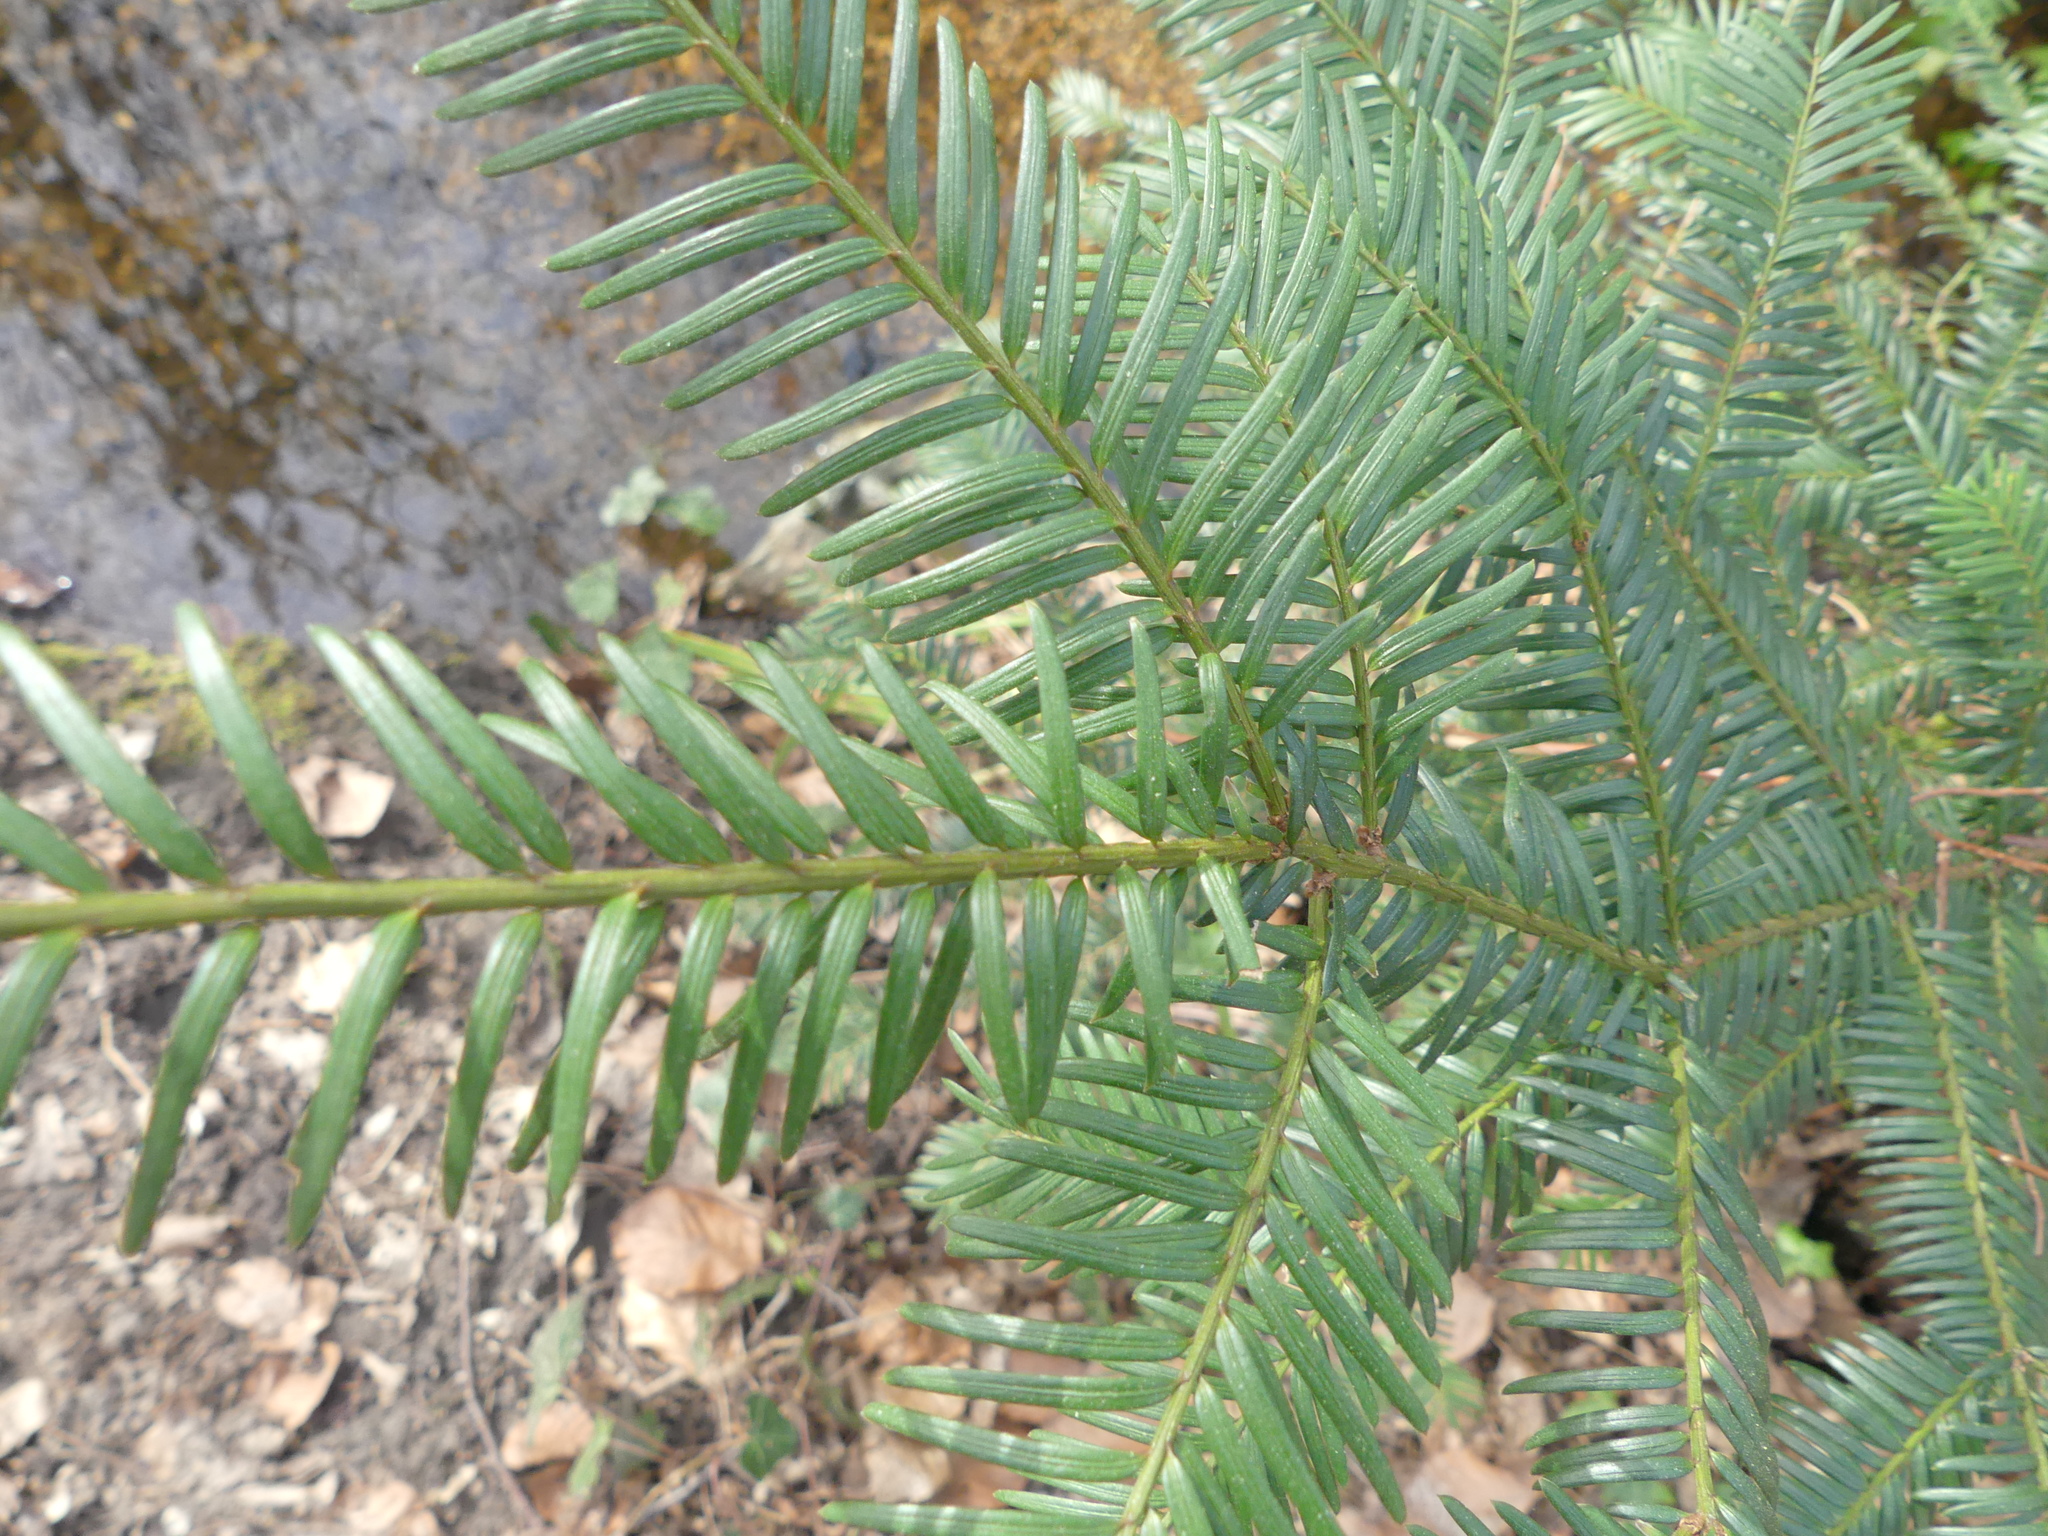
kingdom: Plantae
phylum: Tracheophyta
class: Pinopsida
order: Pinales
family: Taxaceae
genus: Taxus
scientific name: Taxus baccata
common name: Yew
